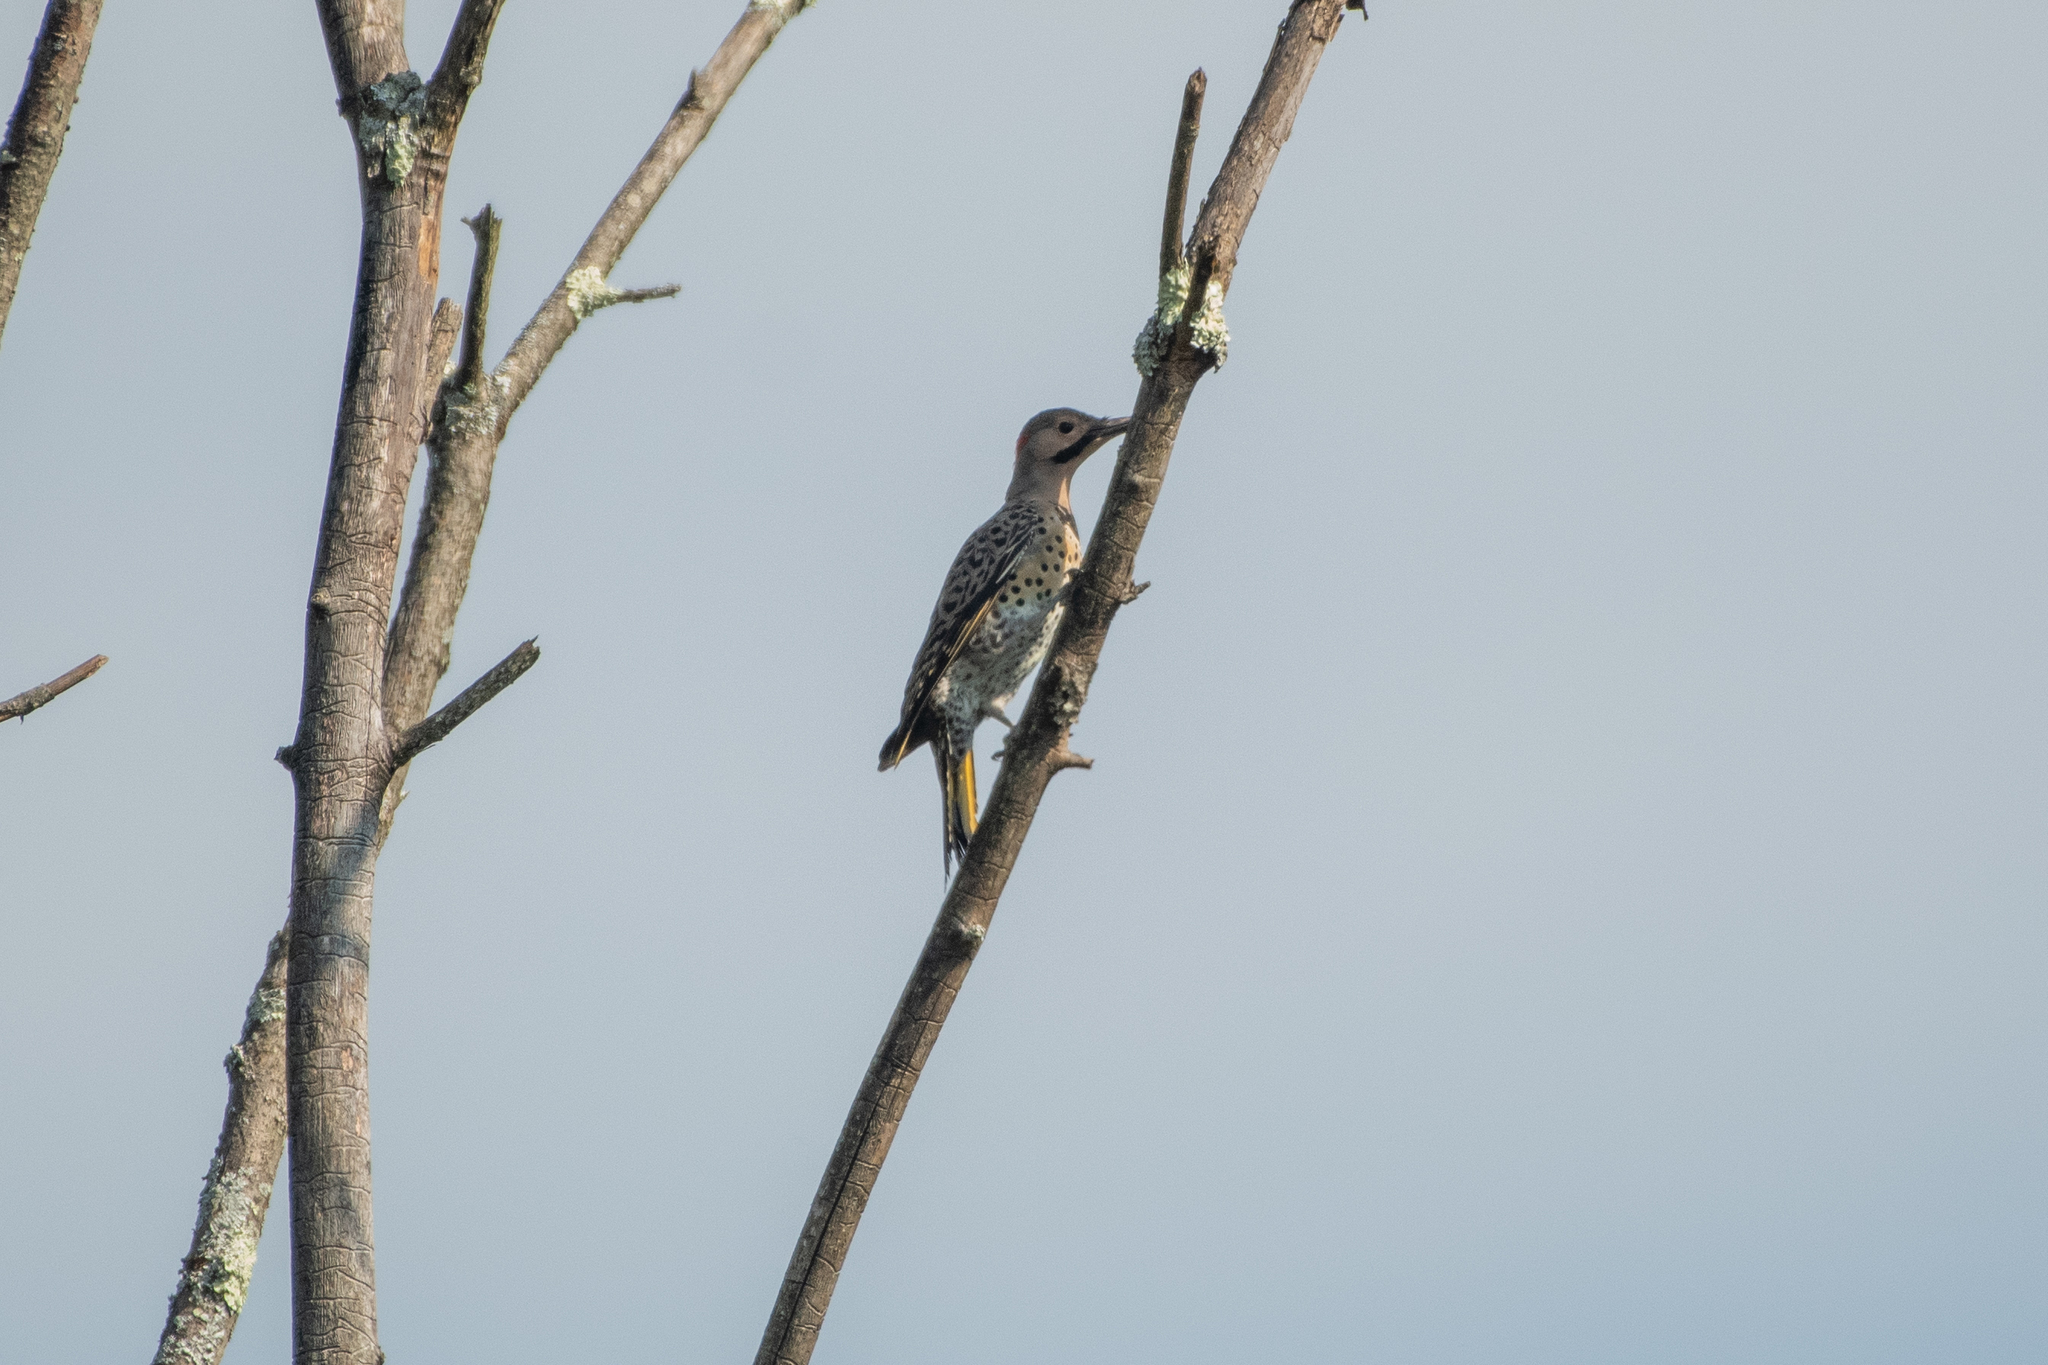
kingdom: Animalia
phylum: Chordata
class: Aves
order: Piciformes
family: Picidae
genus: Colaptes
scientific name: Colaptes auratus
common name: Northern flicker
